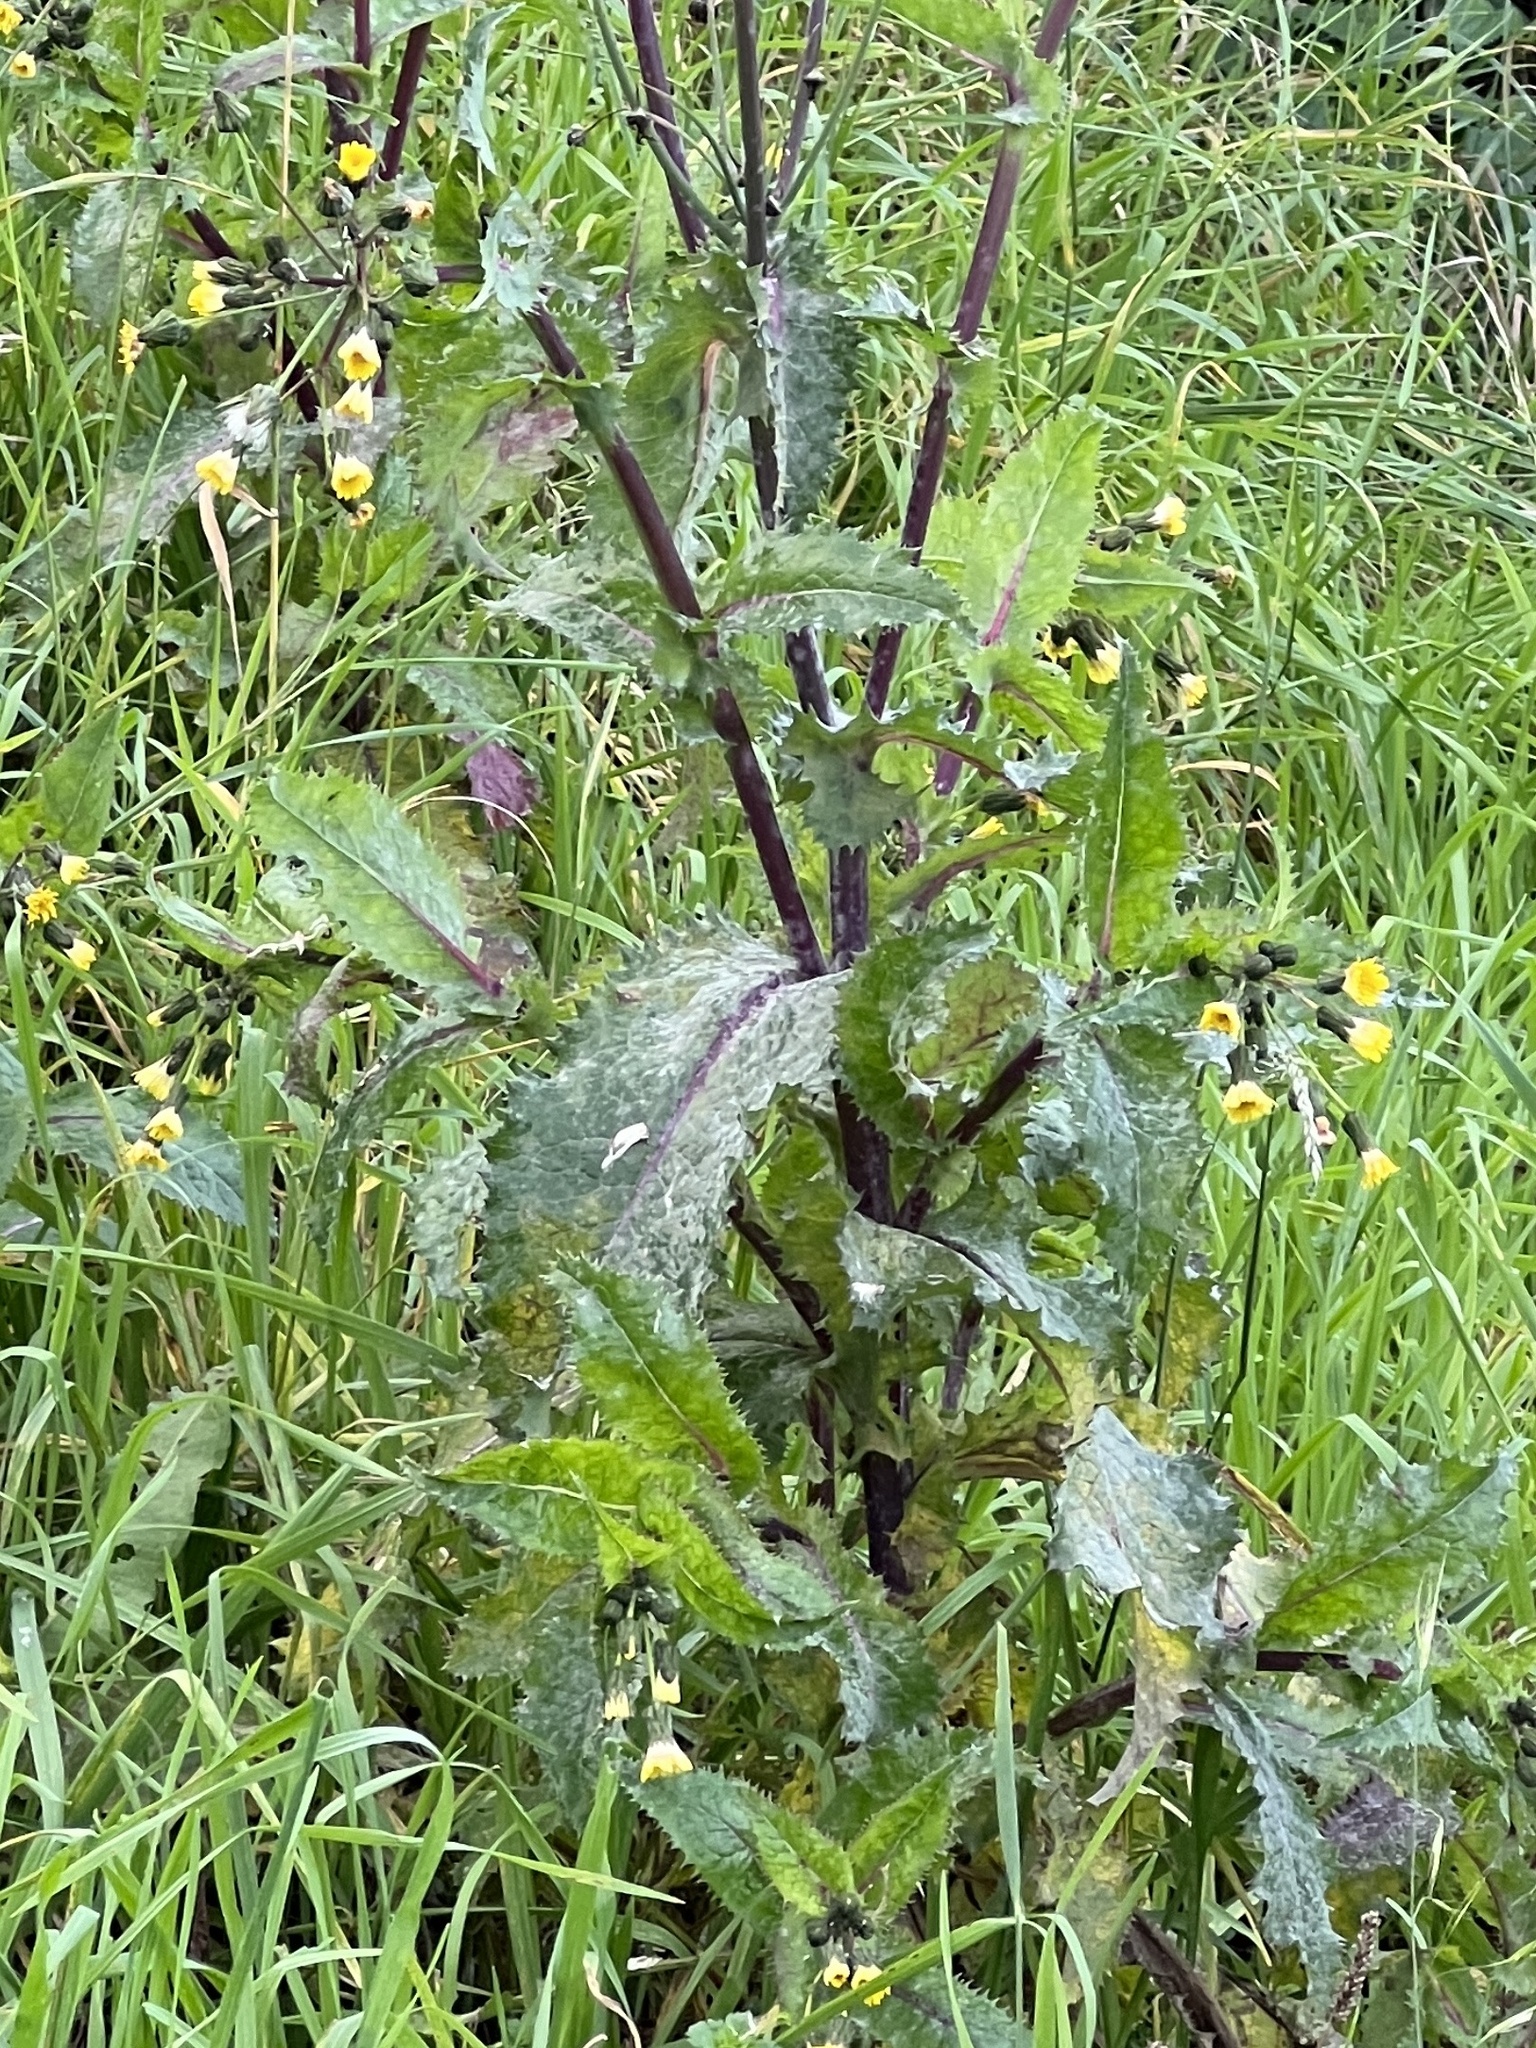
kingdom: Plantae
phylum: Tracheophyta
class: Magnoliopsida
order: Asterales
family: Asteraceae
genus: Sonchus
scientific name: Sonchus asper
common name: Prickly sow-thistle
